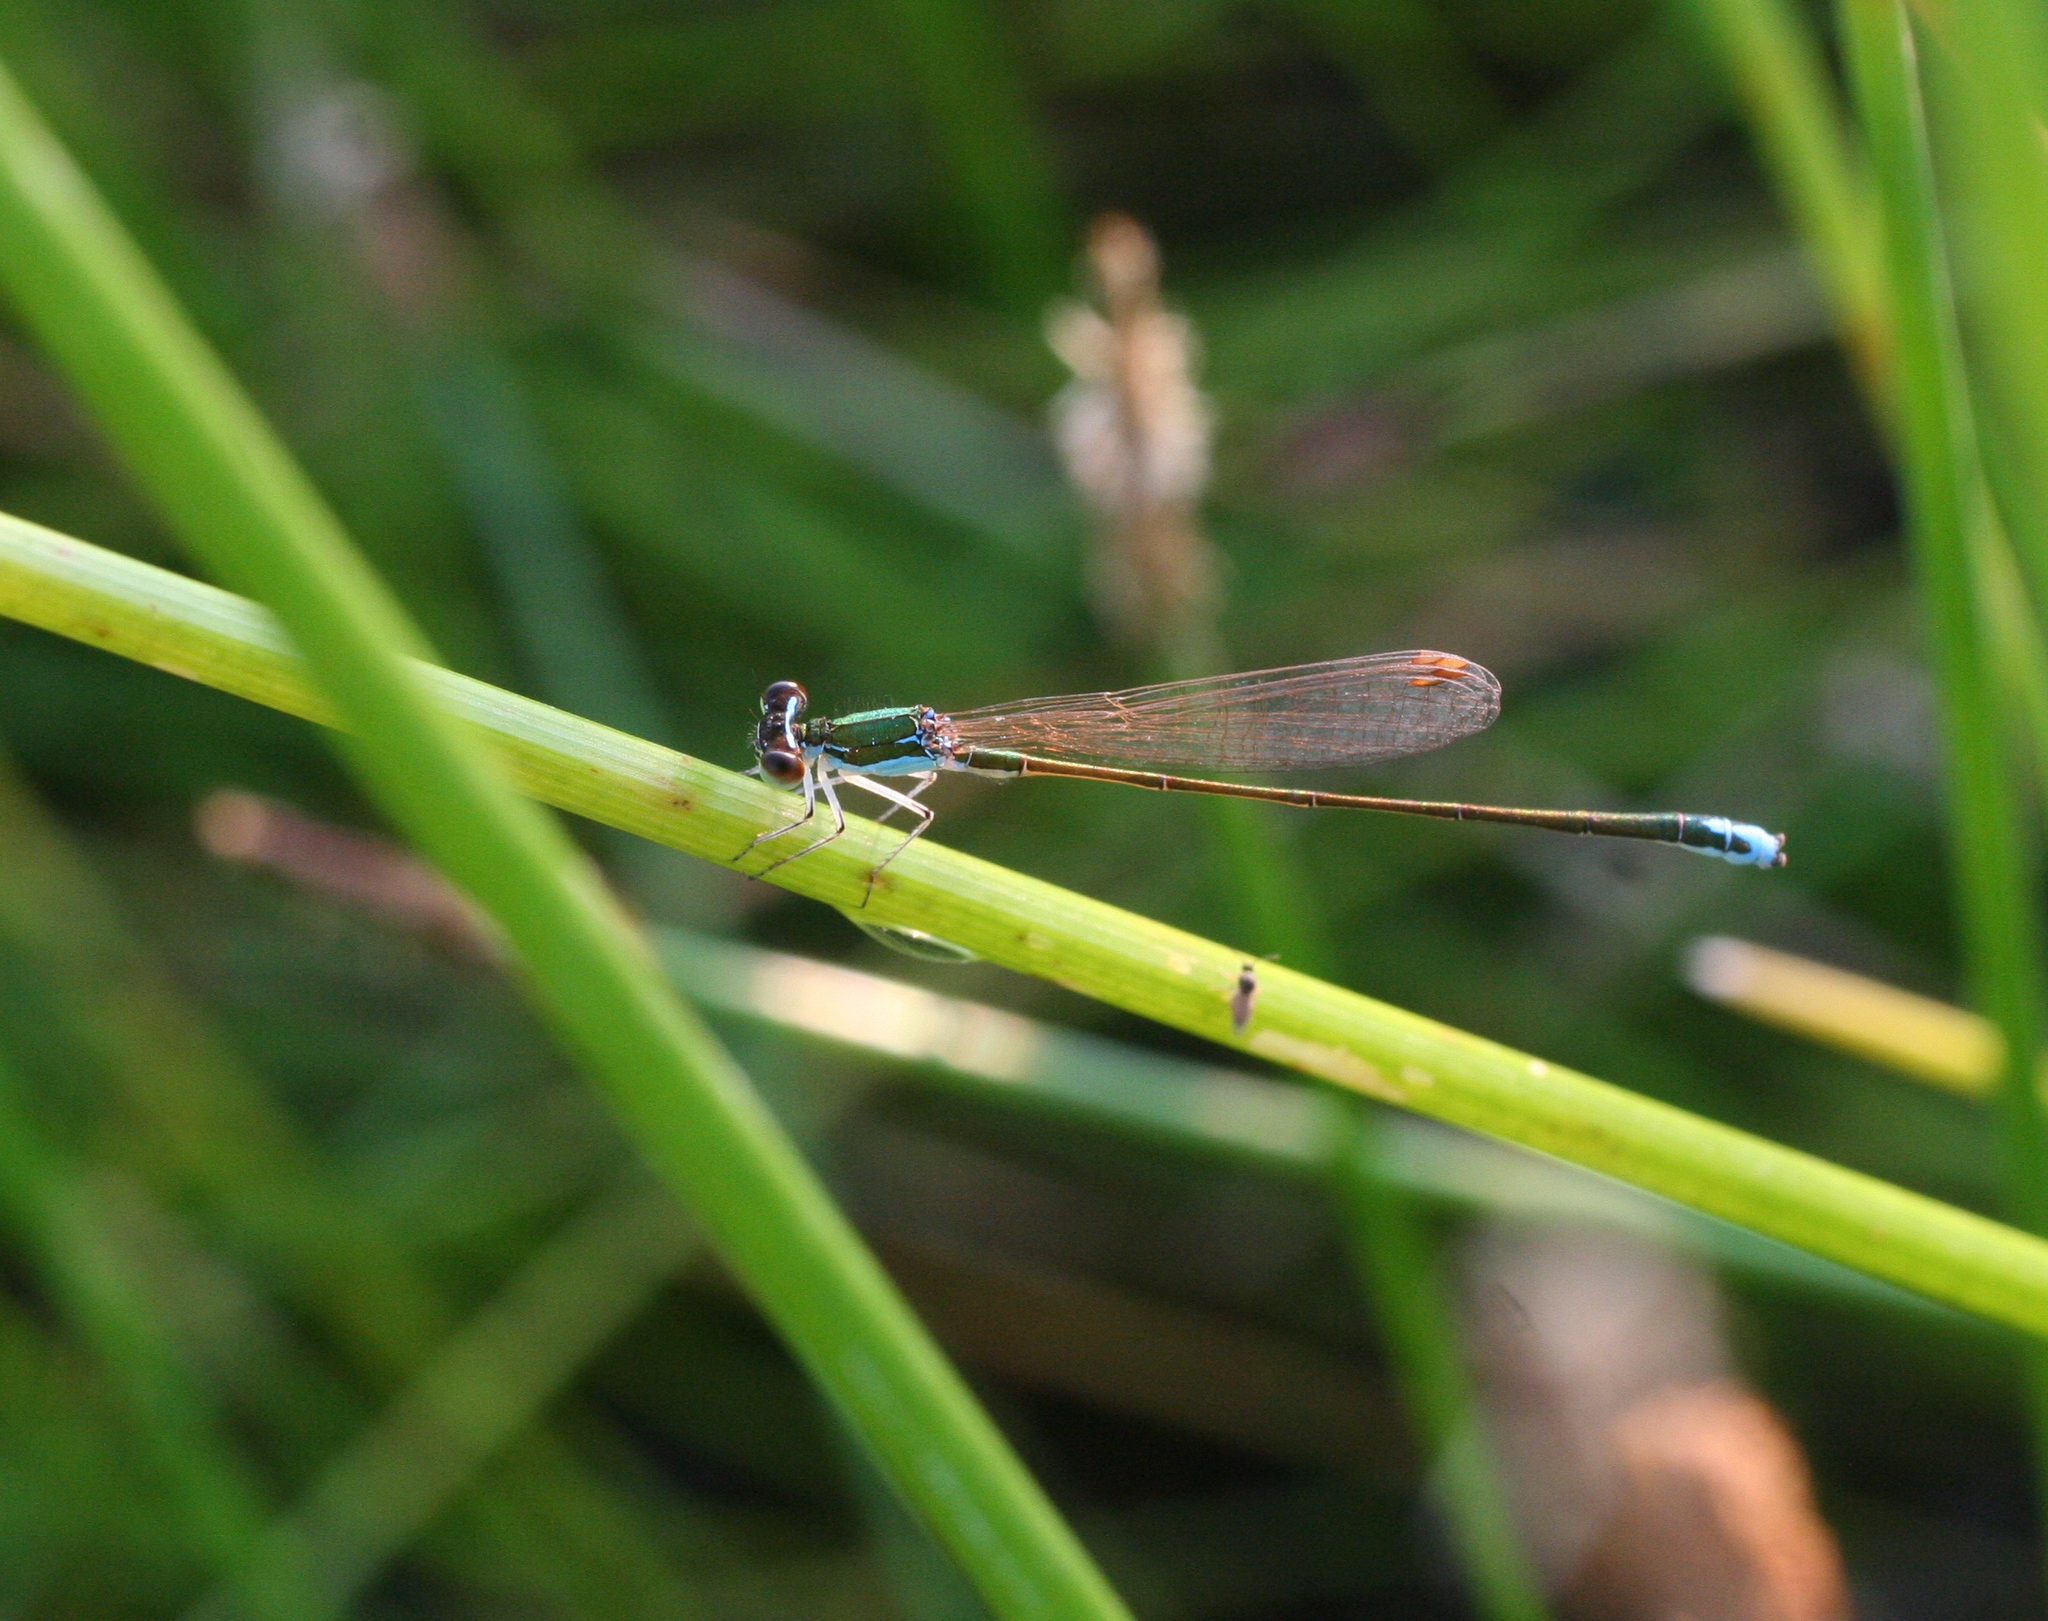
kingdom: Animalia
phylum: Arthropoda
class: Insecta
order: Odonata
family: Coenagrionidae
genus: Nehalennia
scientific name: Nehalennia speciosa
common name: Sedgling
